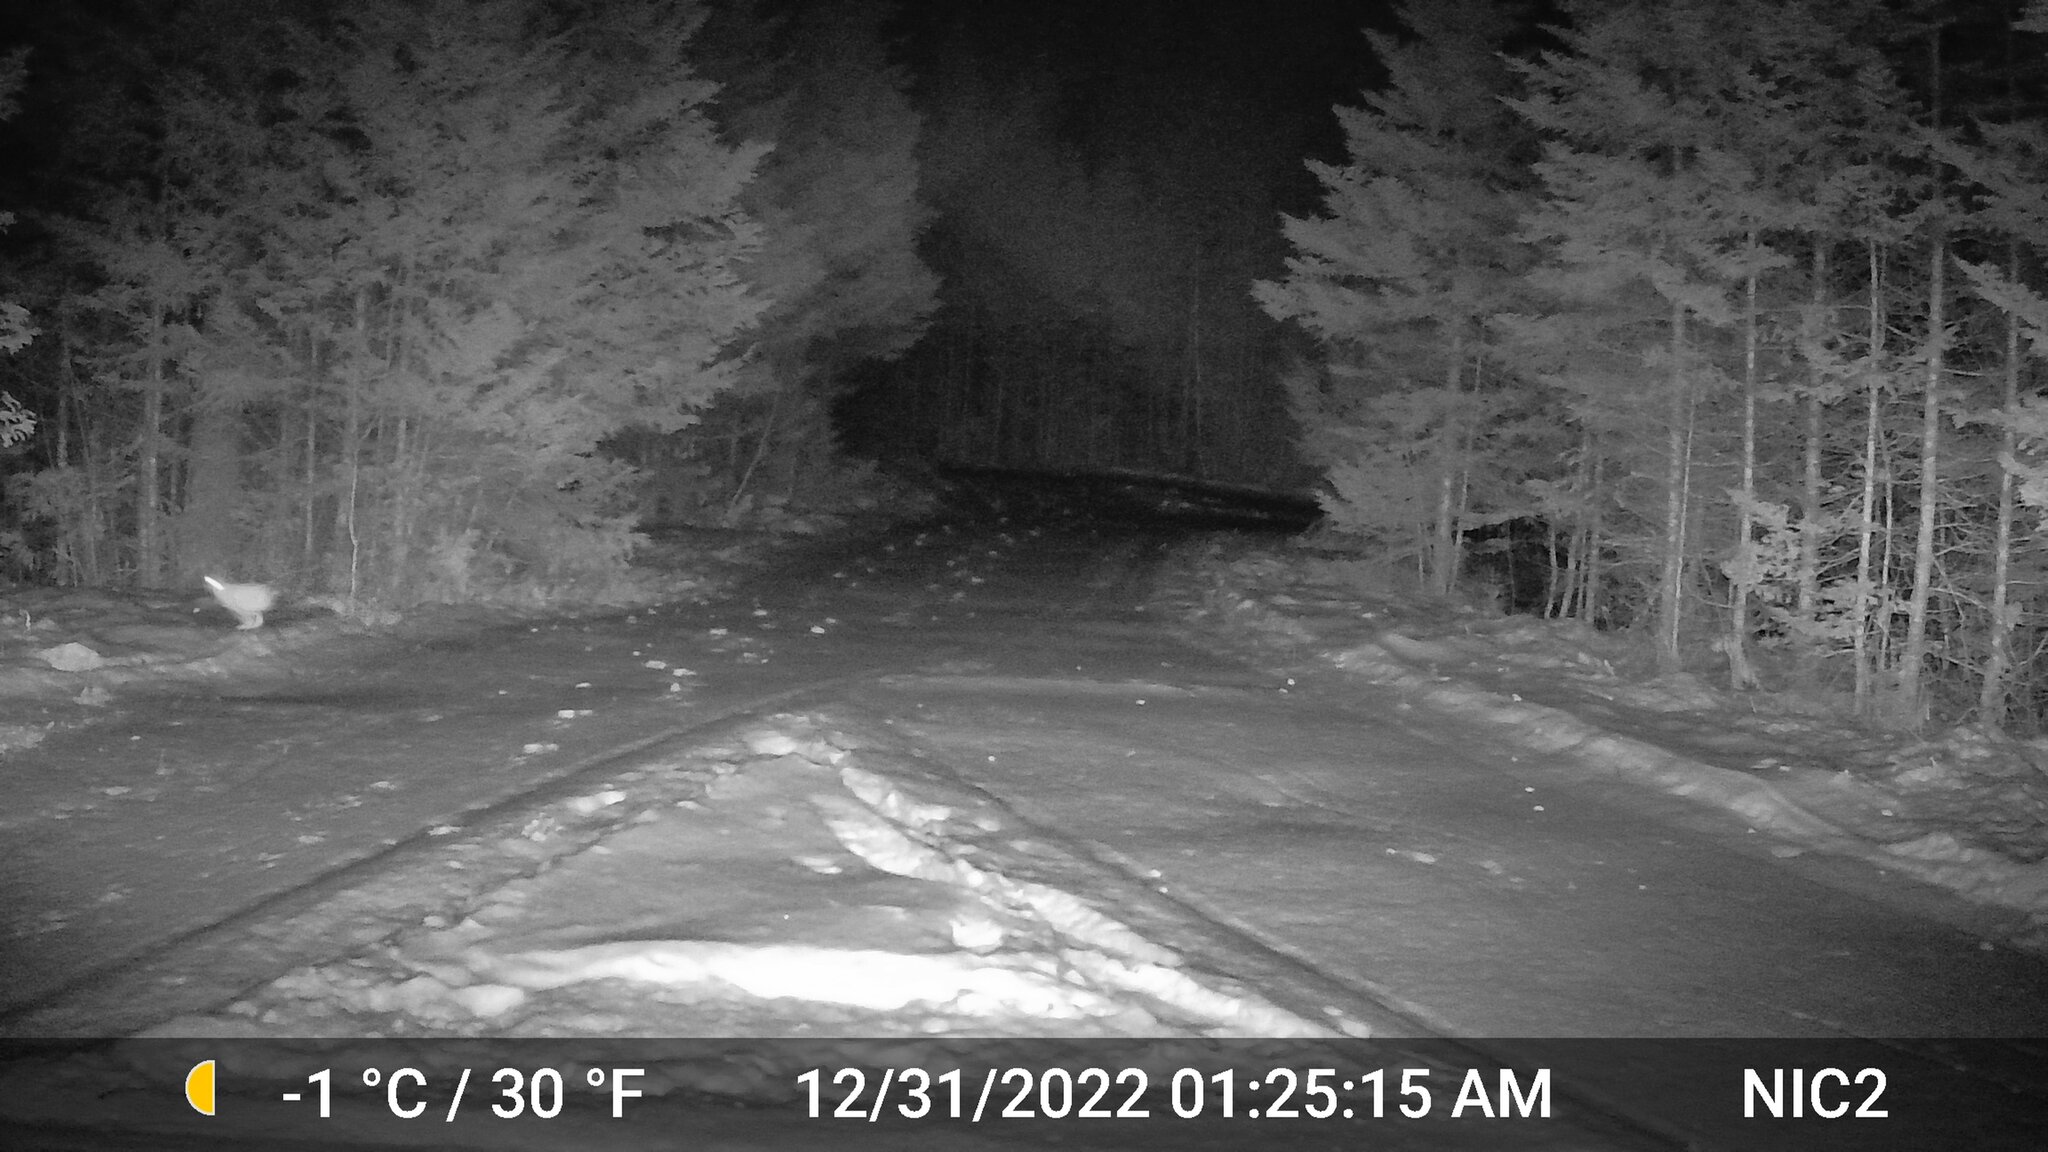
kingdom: Animalia
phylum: Chordata
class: Mammalia
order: Lagomorpha
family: Leporidae
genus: Lepus
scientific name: Lepus americanus
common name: Snowshoe hare
